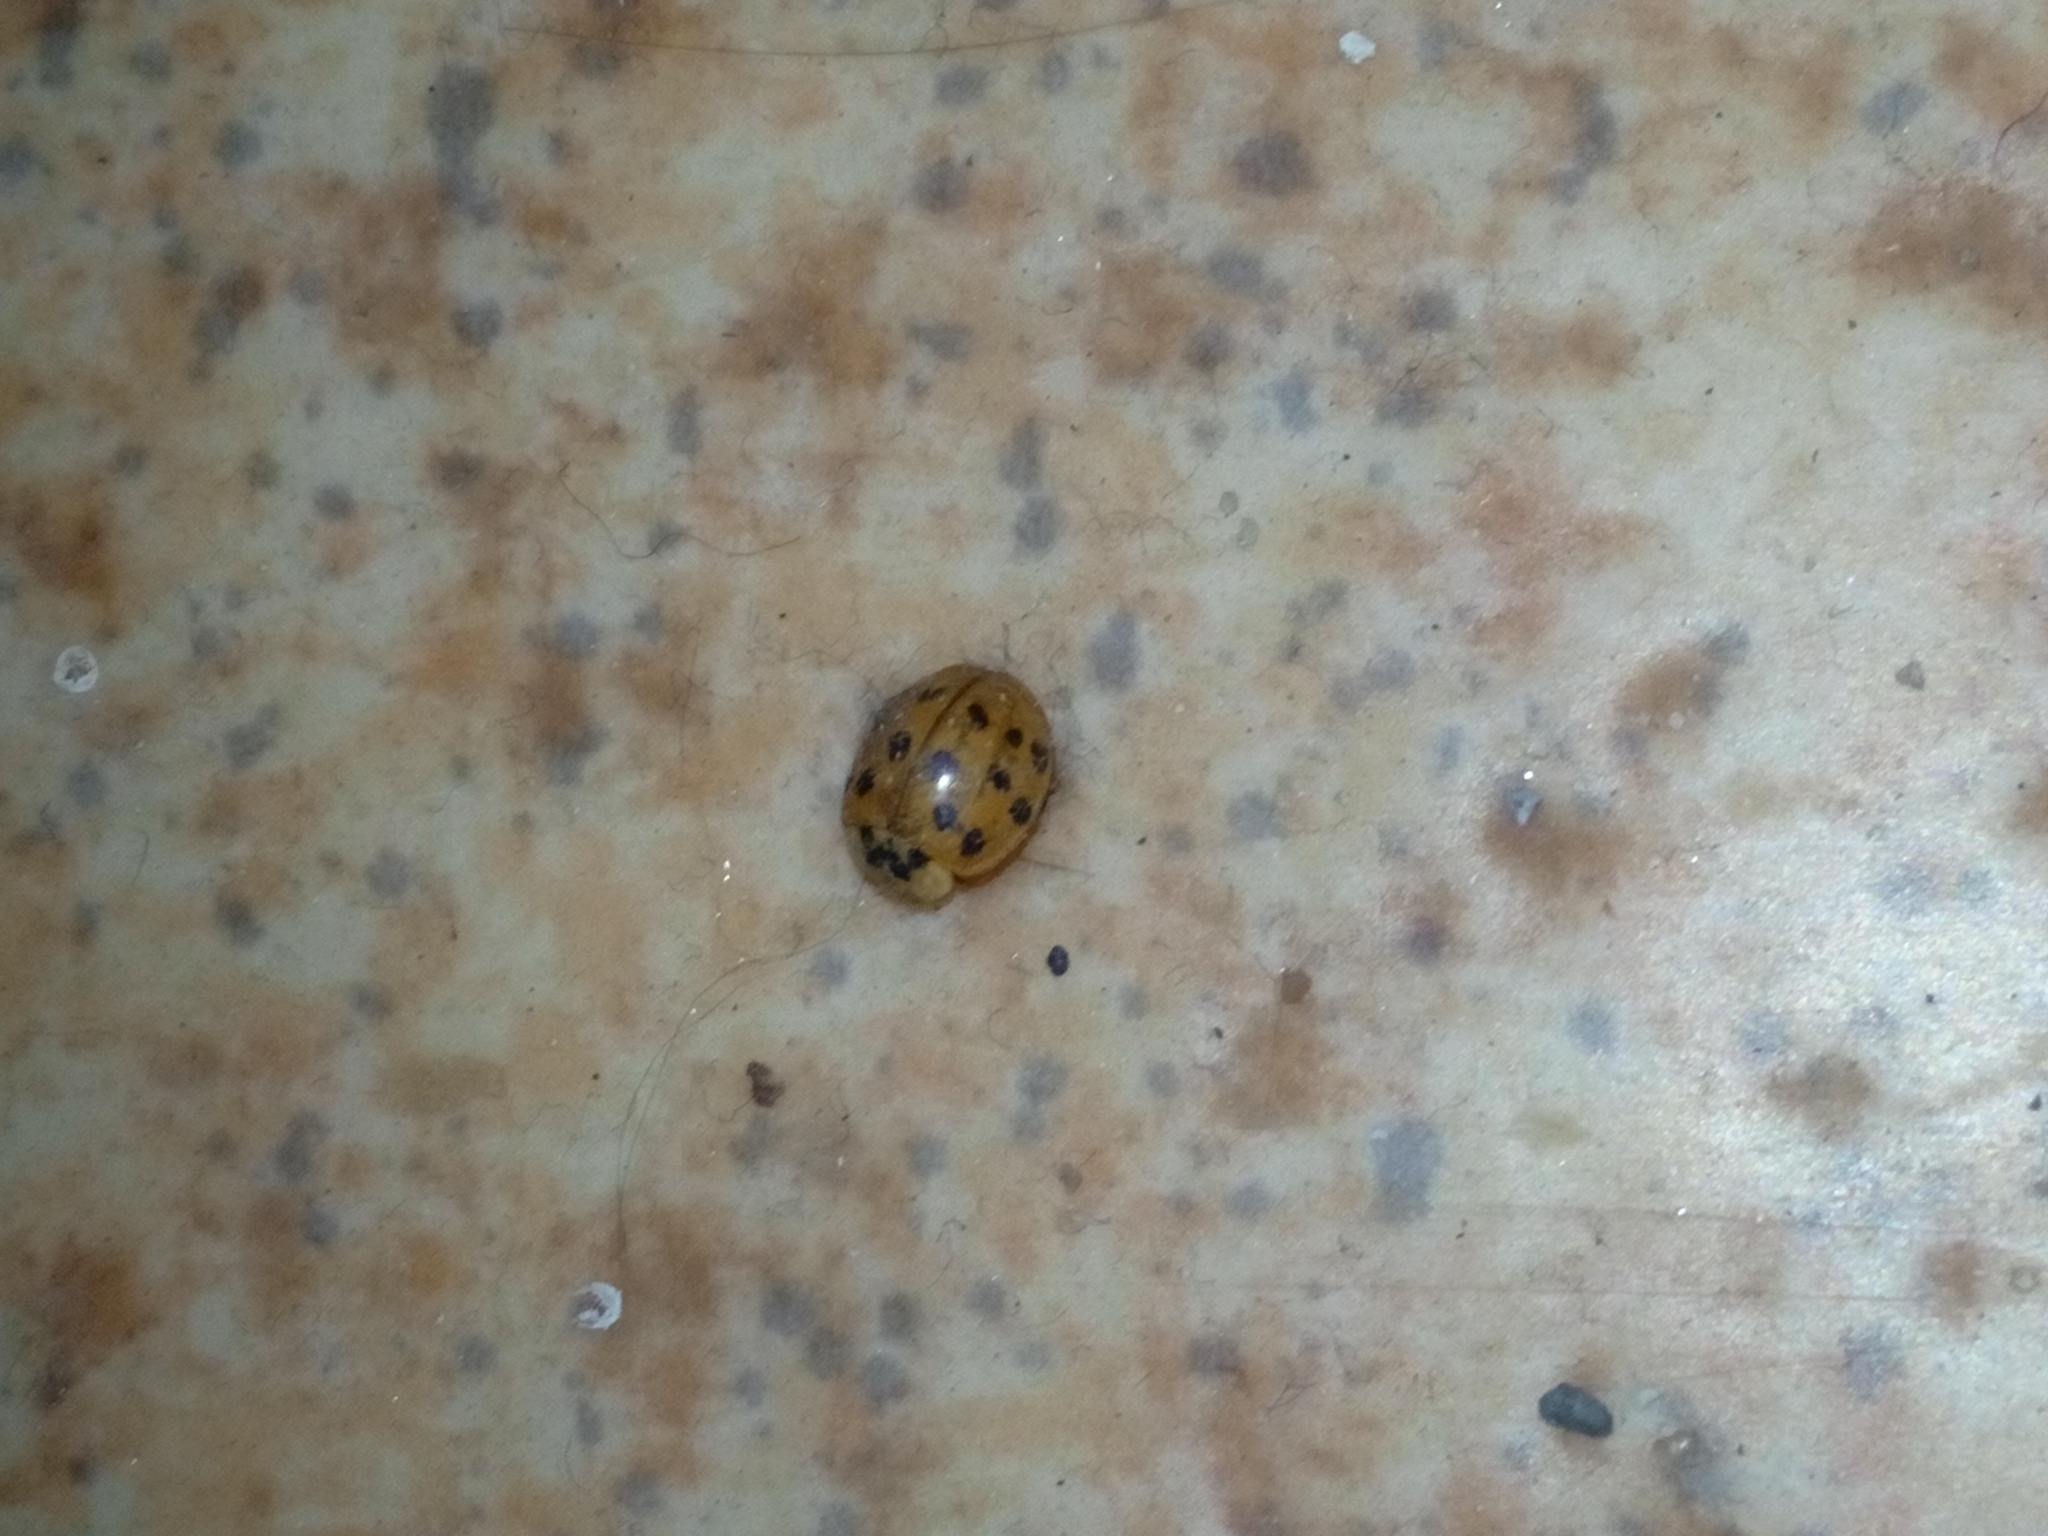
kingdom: Animalia
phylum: Arthropoda
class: Insecta
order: Coleoptera
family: Coccinellidae
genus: Harmonia
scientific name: Harmonia axyridis
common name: Harlequin ladybird
